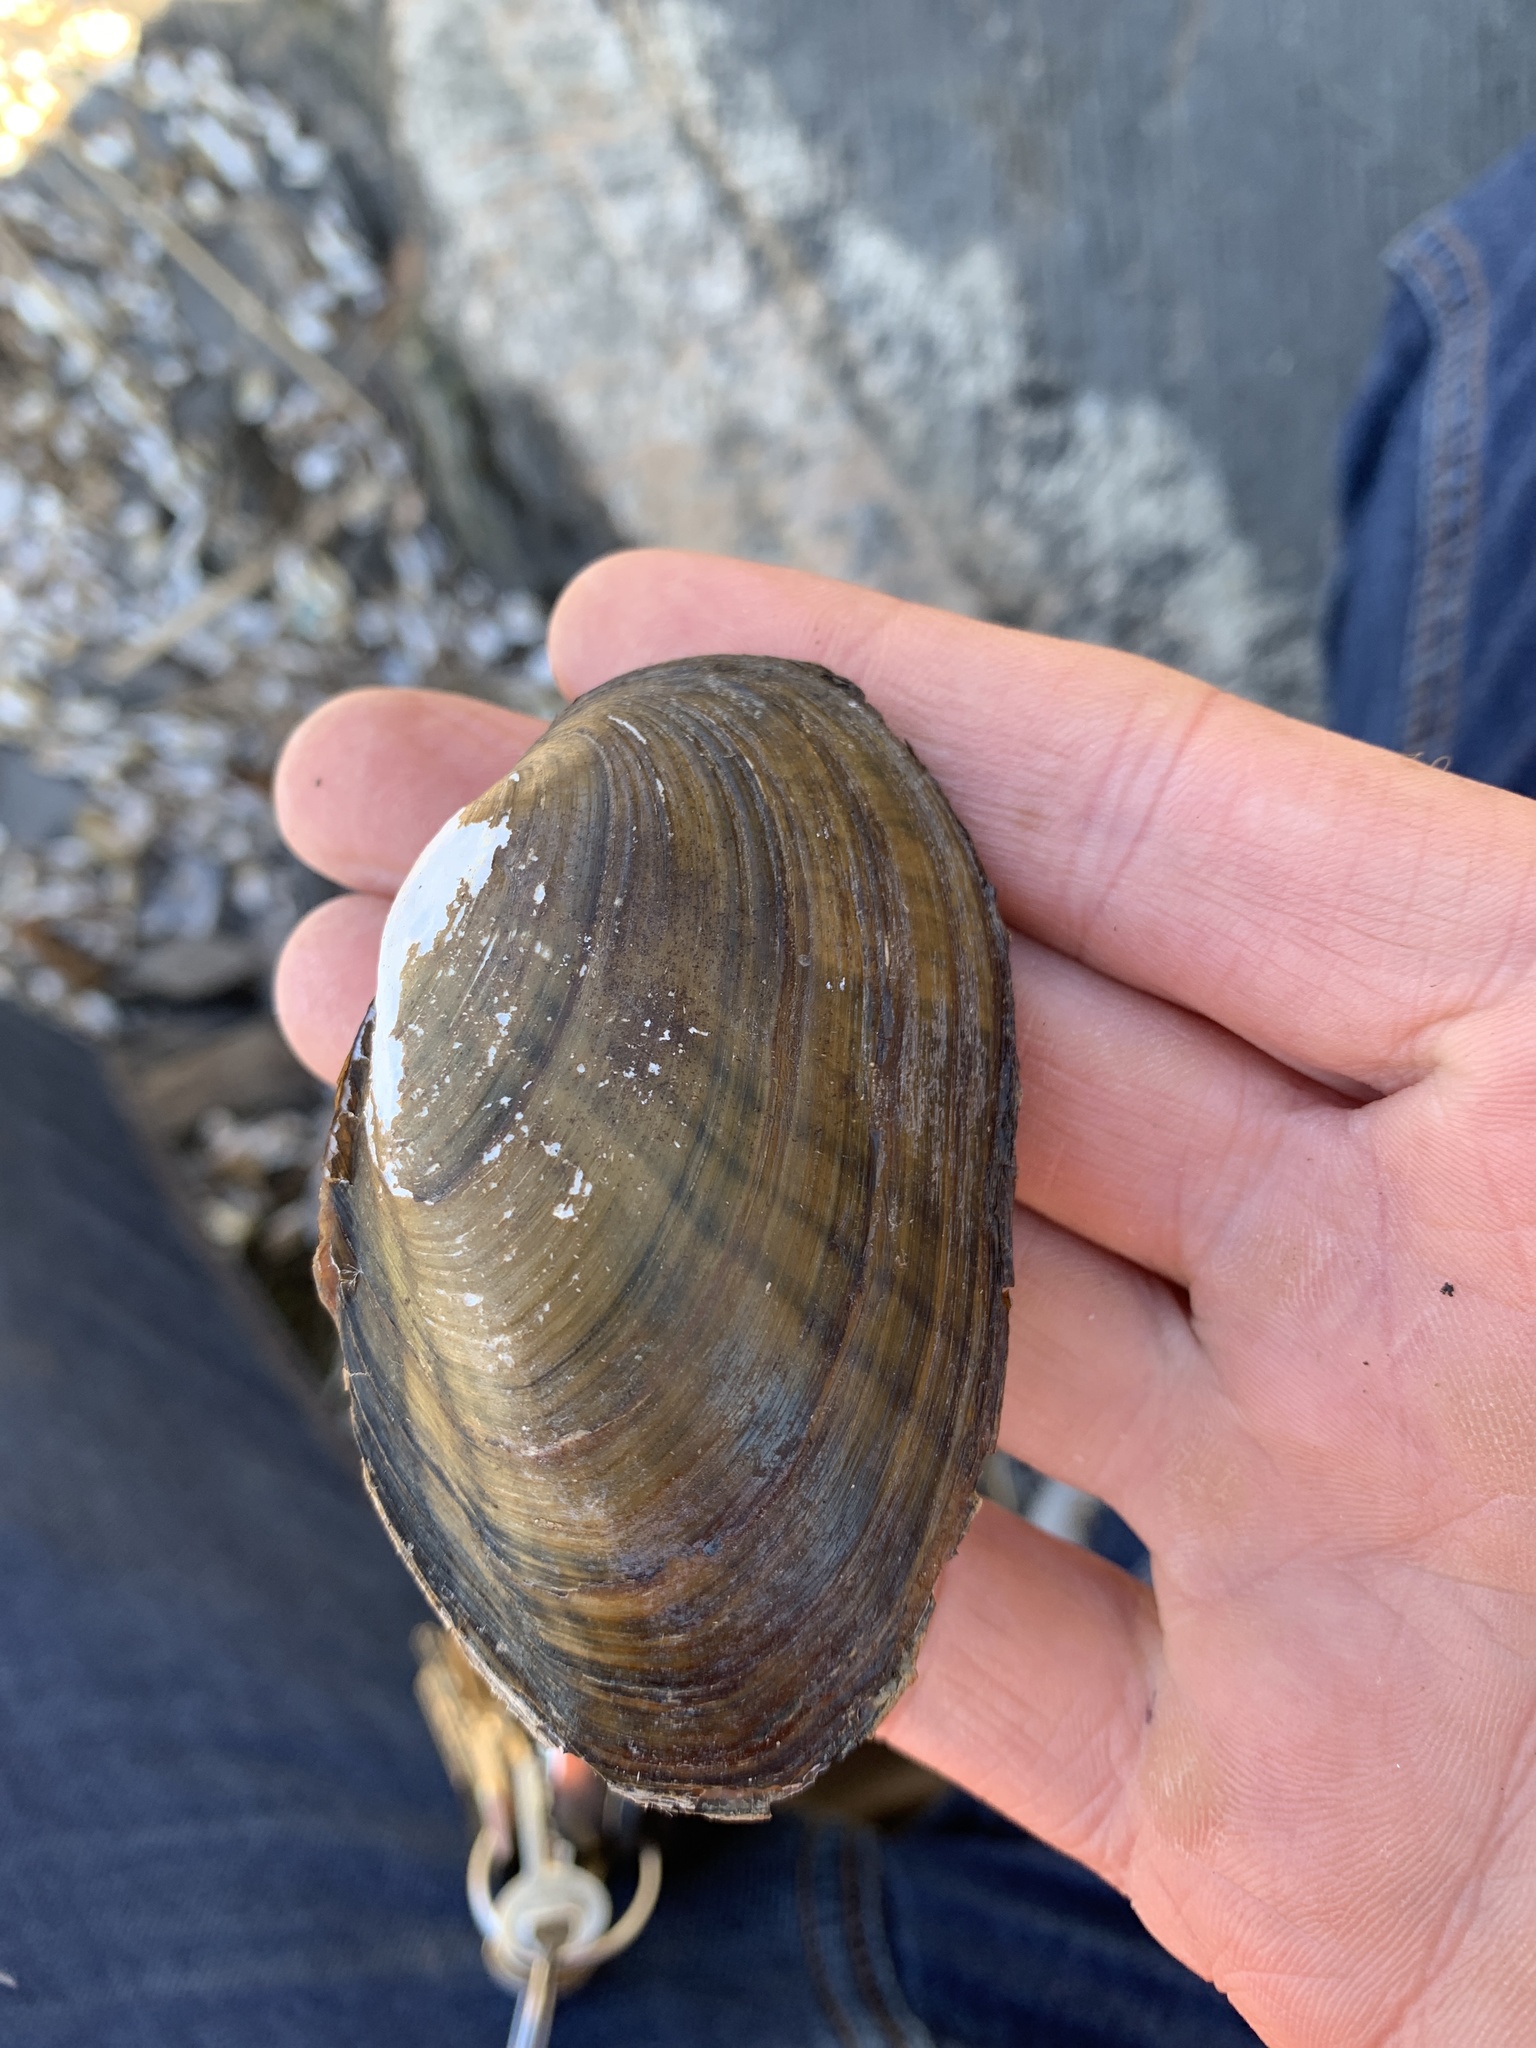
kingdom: Animalia
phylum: Mollusca
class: Bivalvia
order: Unionida
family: Unionidae
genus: Lampsilis
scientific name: Lampsilis radiata
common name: Eastern lampmussel
